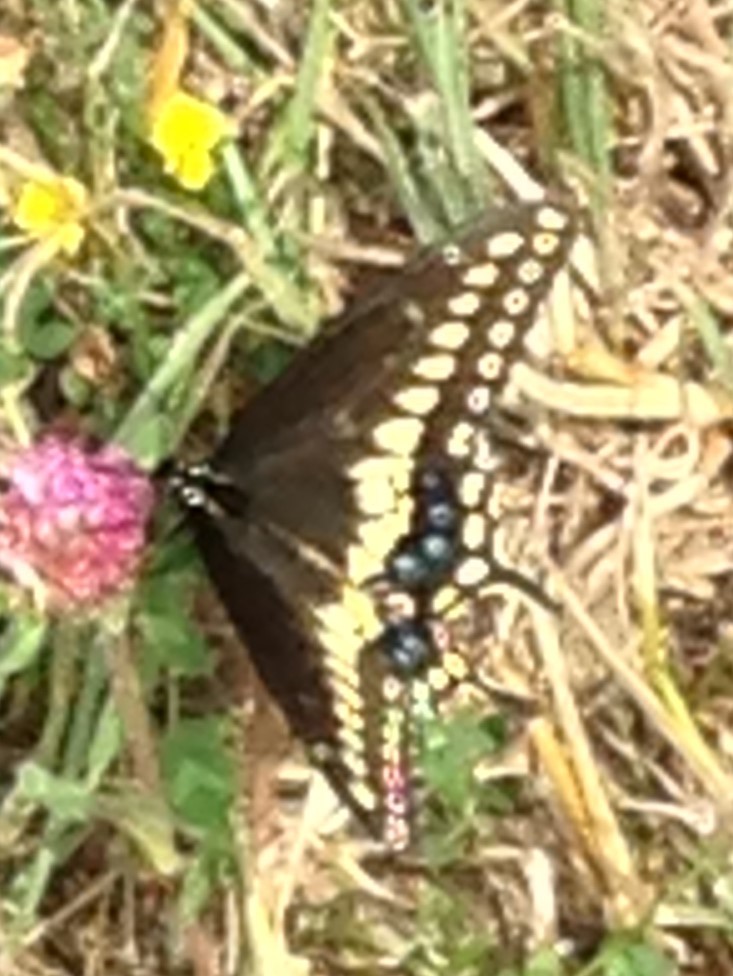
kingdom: Animalia
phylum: Arthropoda
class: Insecta
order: Lepidoptera
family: Papilionidae
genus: Papilio
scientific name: Papilio polyxenes
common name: Black swallowtail
